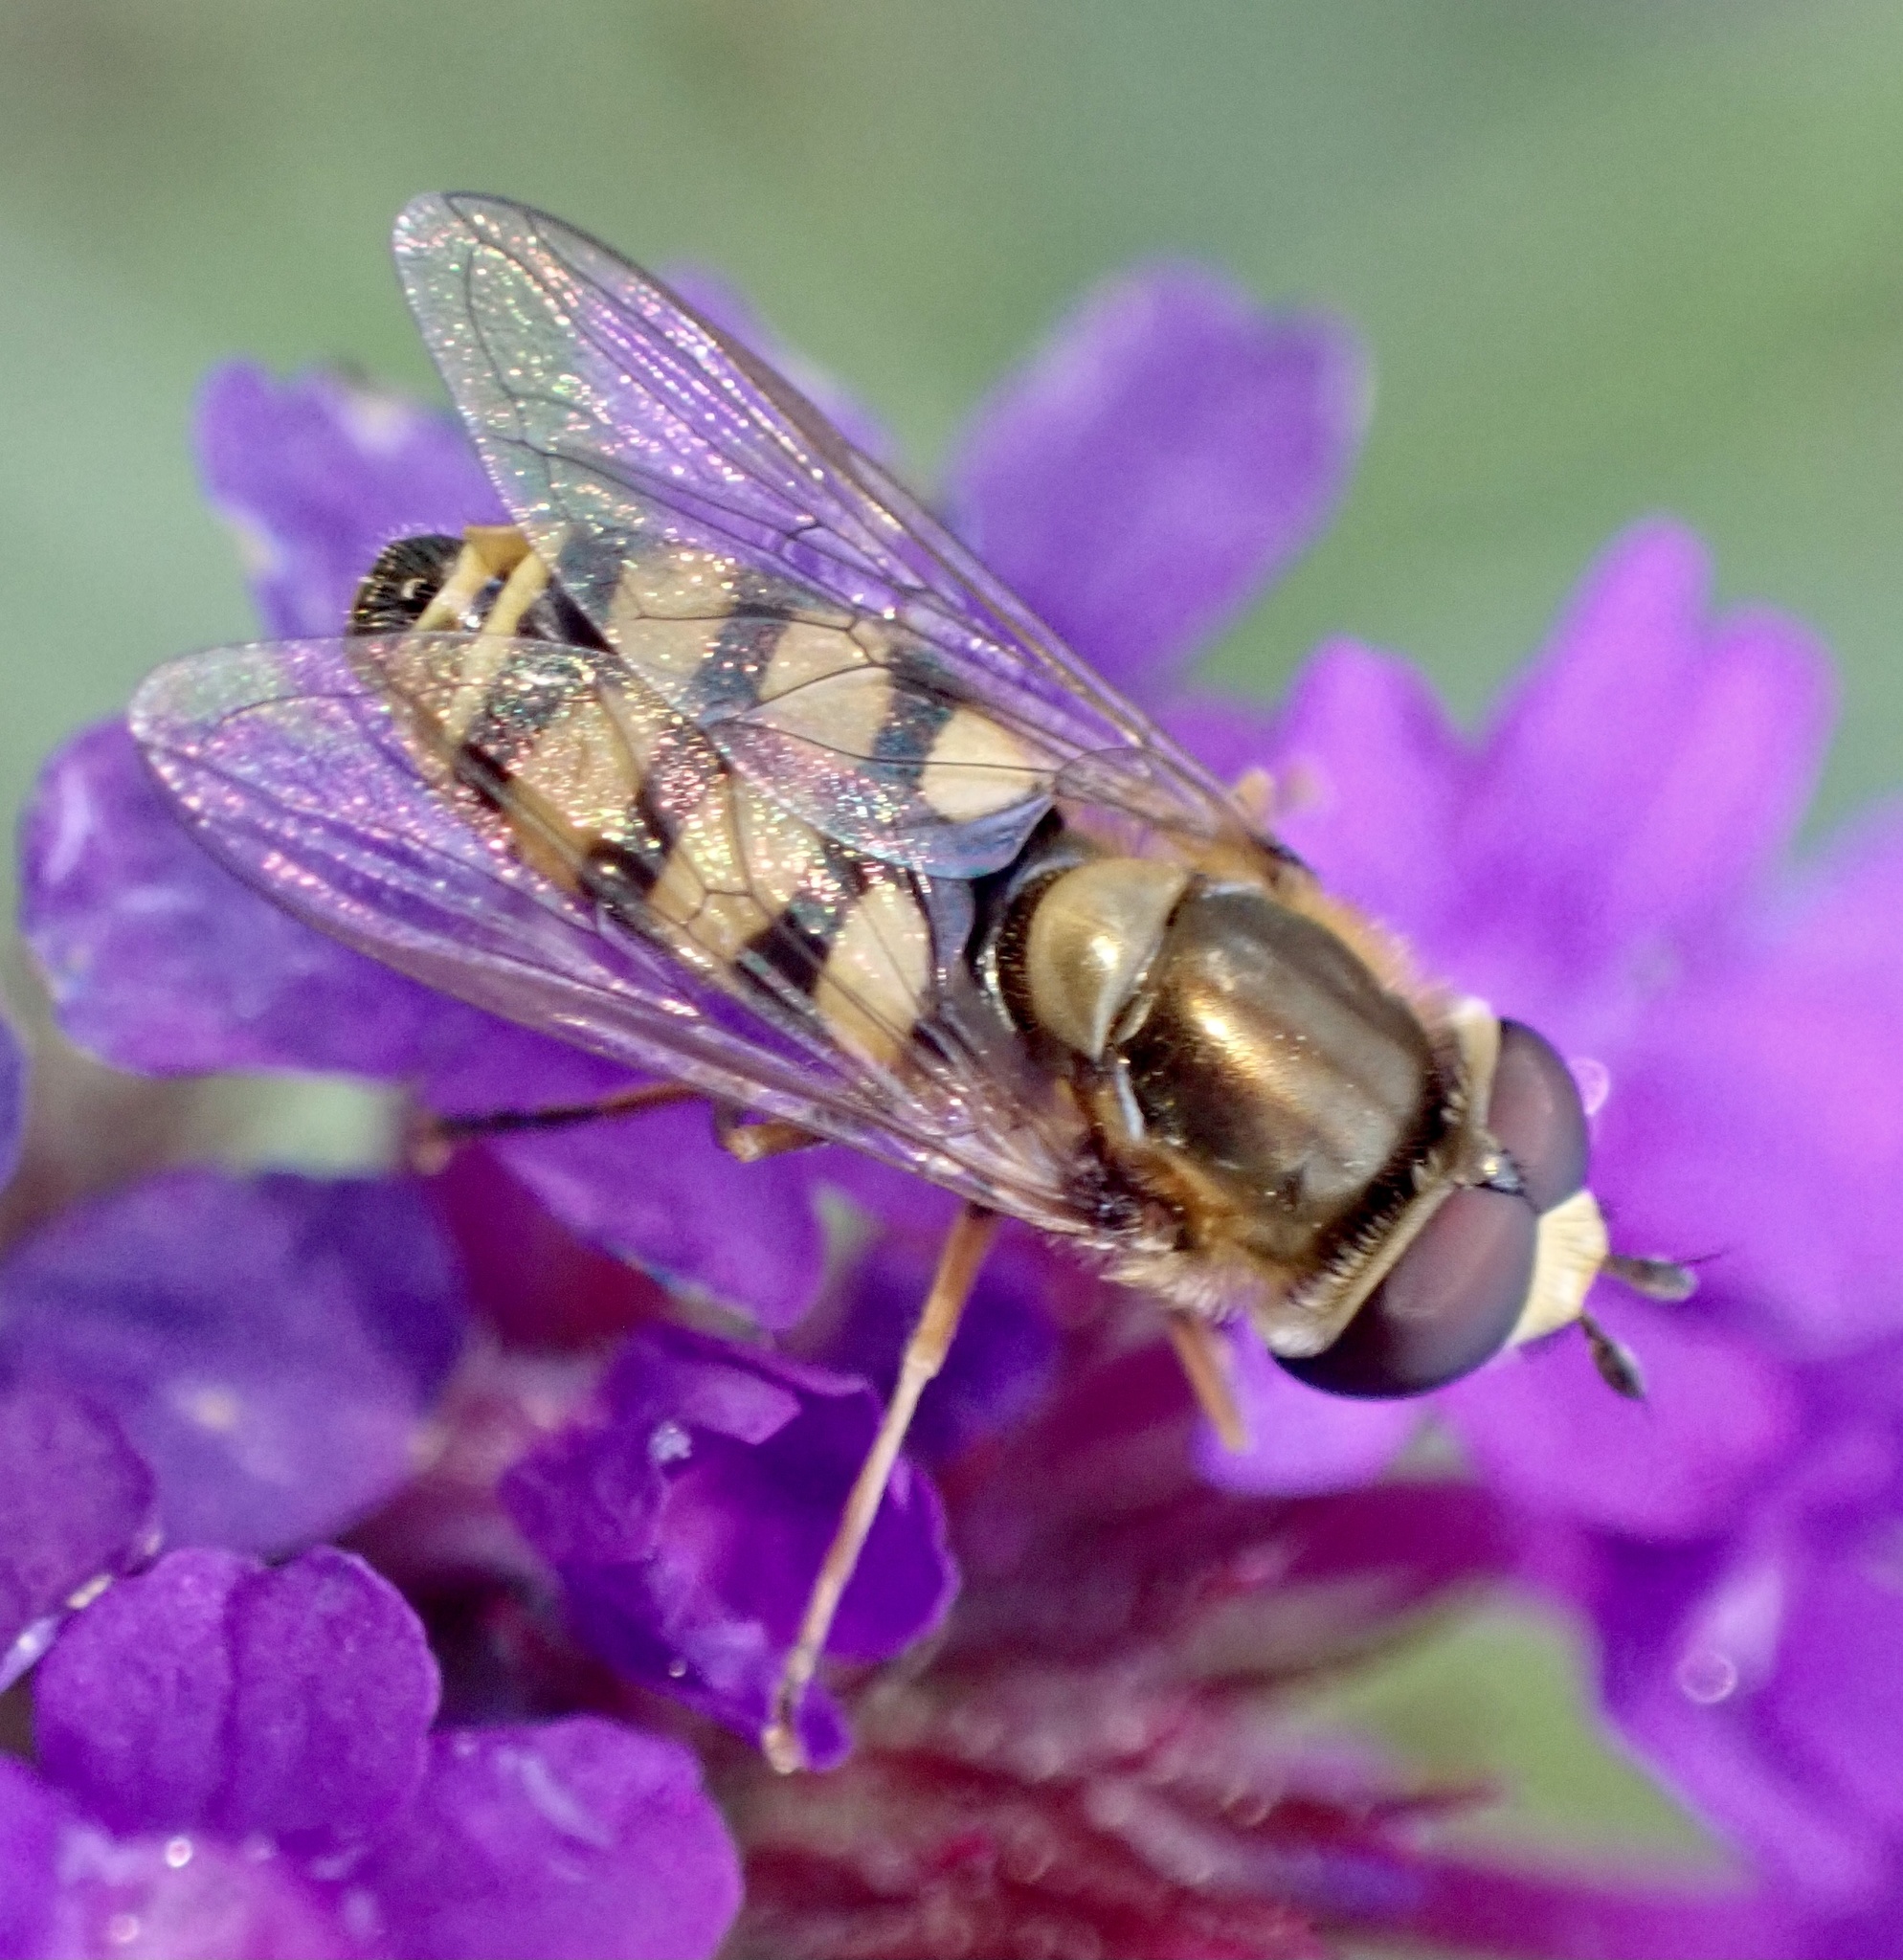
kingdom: Animalia
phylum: Arthropoda
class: Insecta
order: Diptera
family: Syrphidae
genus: Eupeodes
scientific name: Eupeodes corollae
